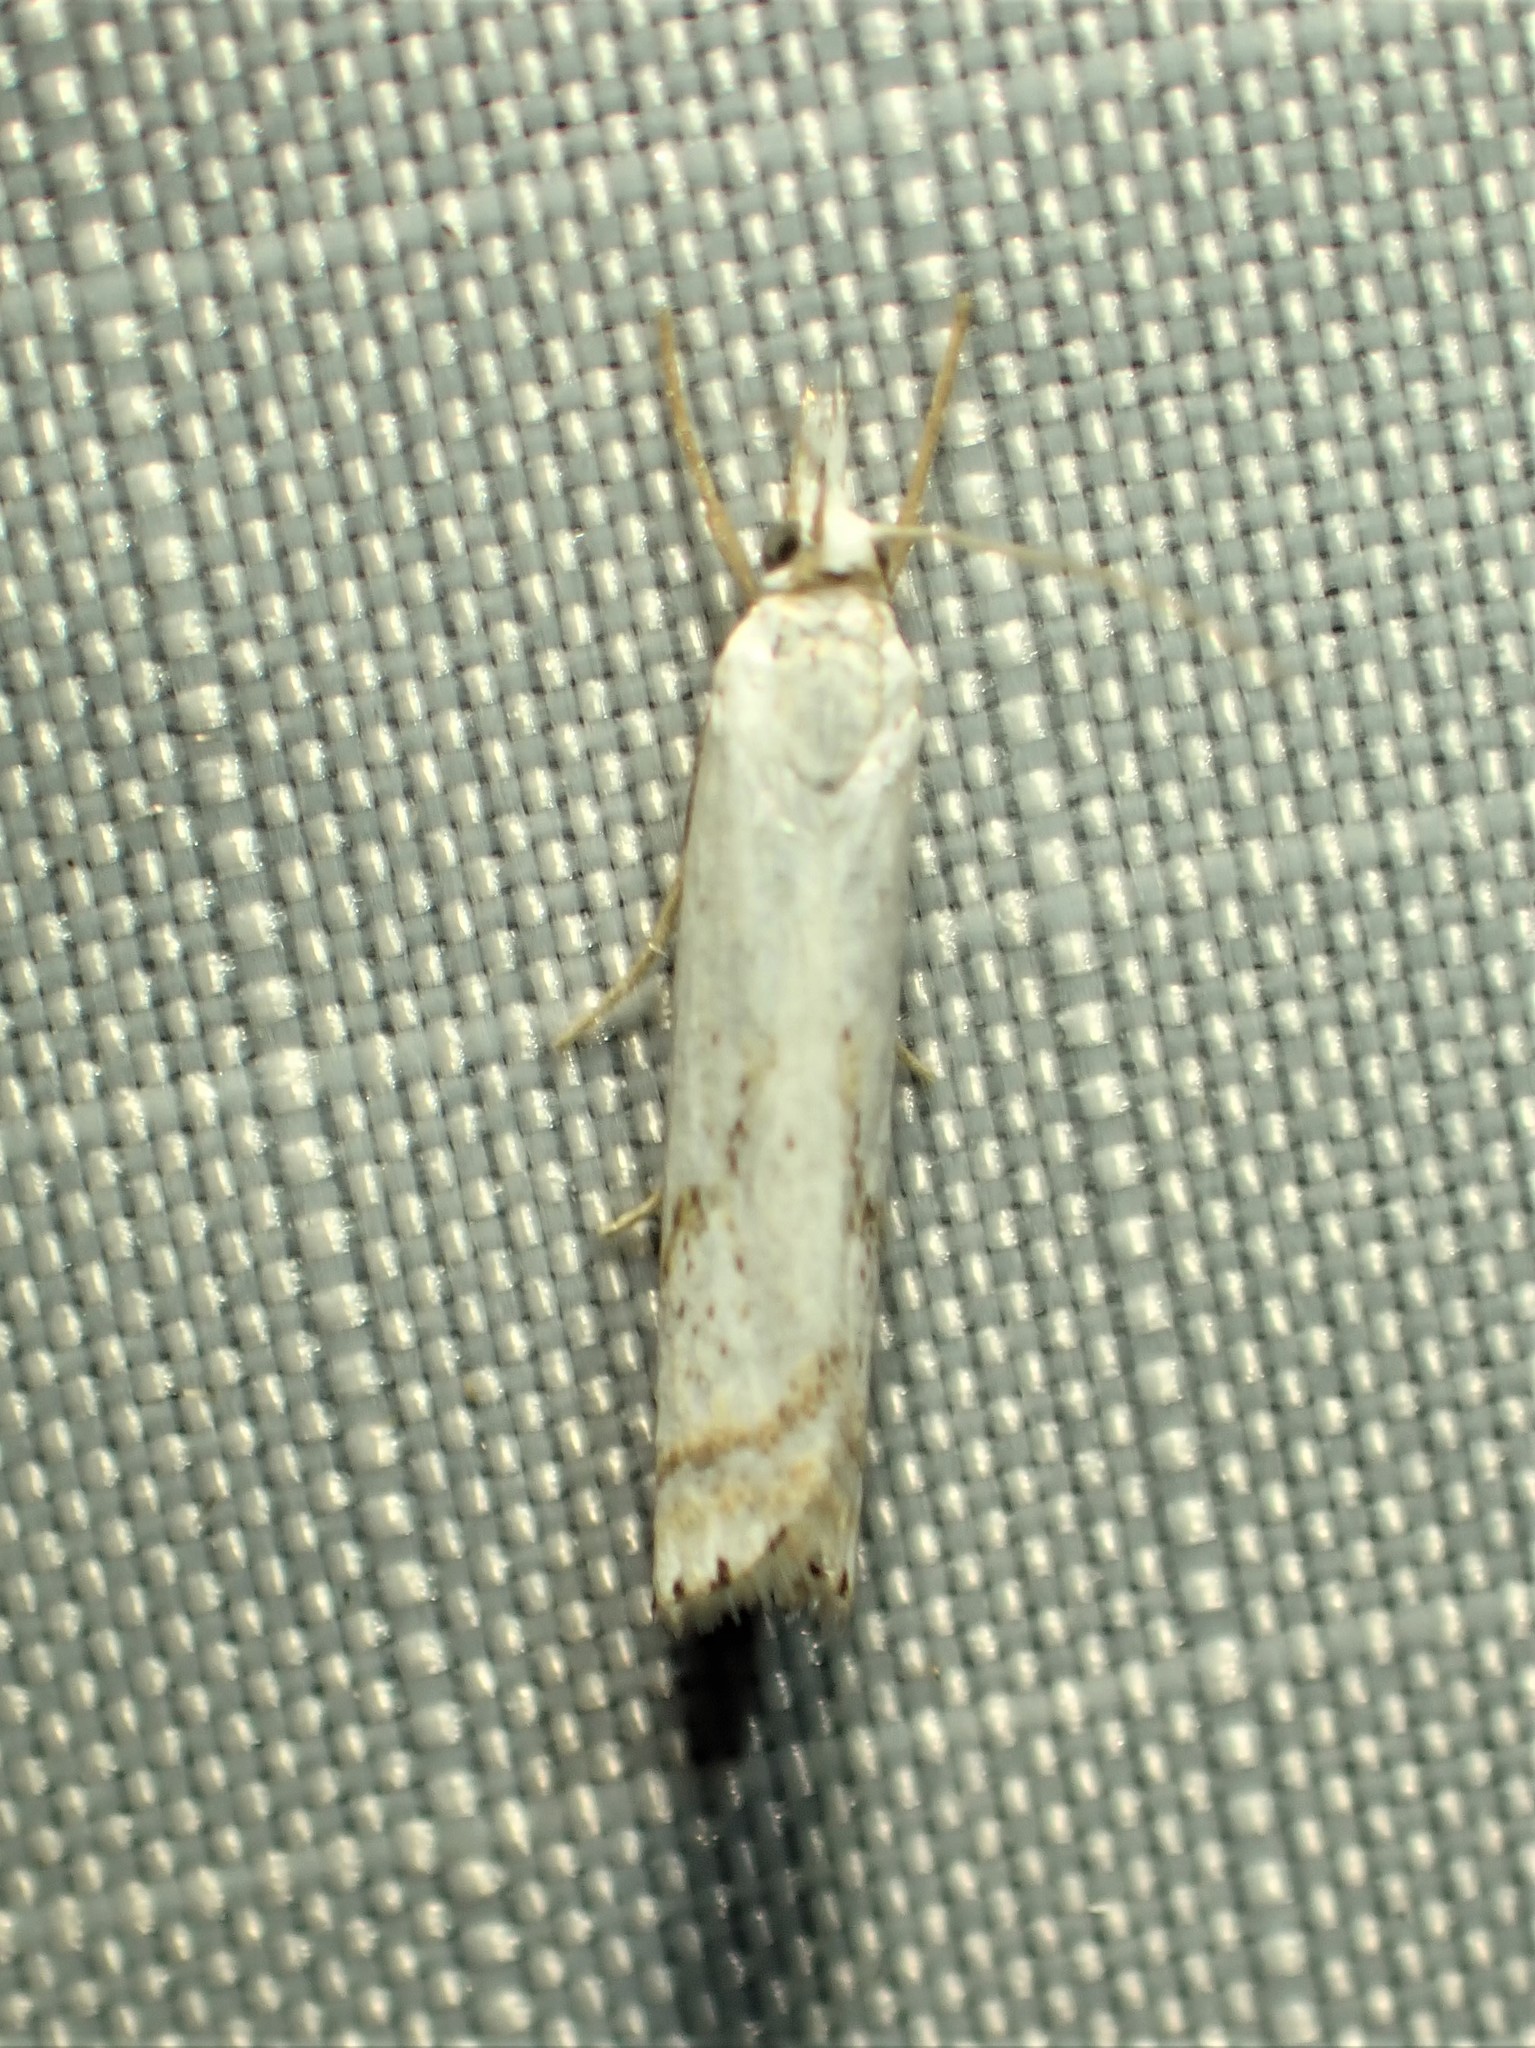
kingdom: Animalia
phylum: Arthropoda
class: Insecta
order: Lepidoptera
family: Crambidae
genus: Crambus
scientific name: Crambus albellus
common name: Small white grass-veneer
